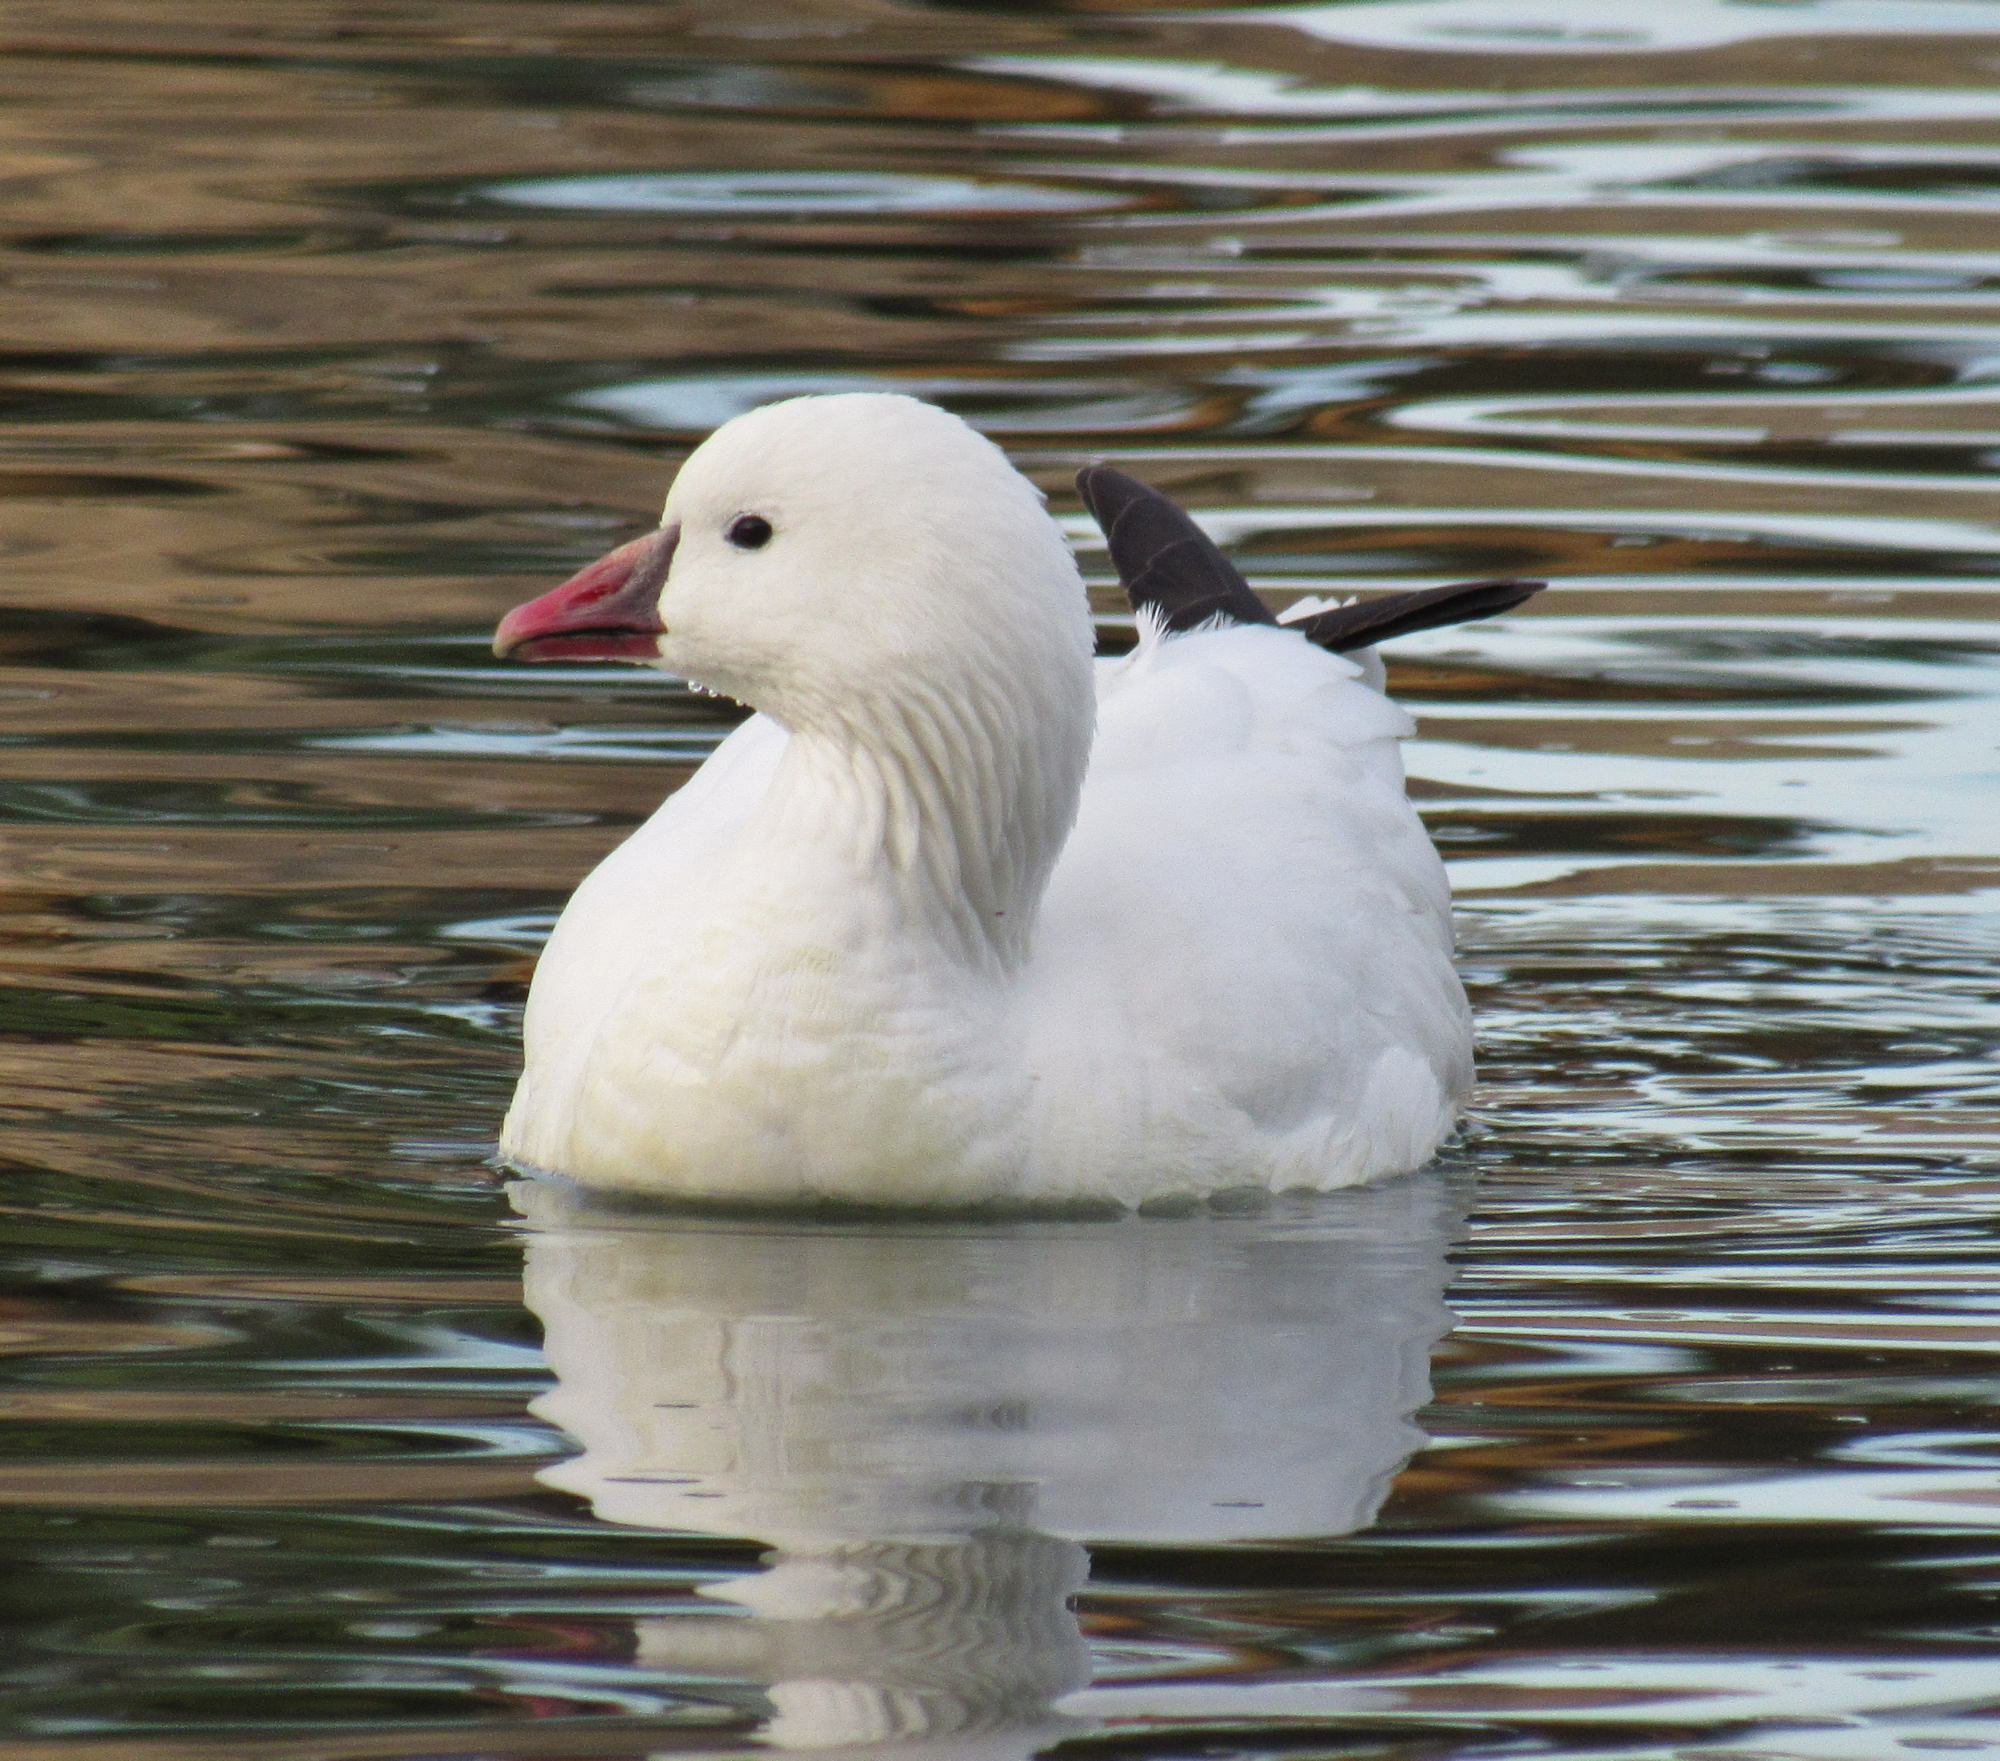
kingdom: Animalia
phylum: Chordata
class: Aves
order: Anseriformes
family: Anatidae
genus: Anser
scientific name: Anser rossii
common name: Ross's goose
